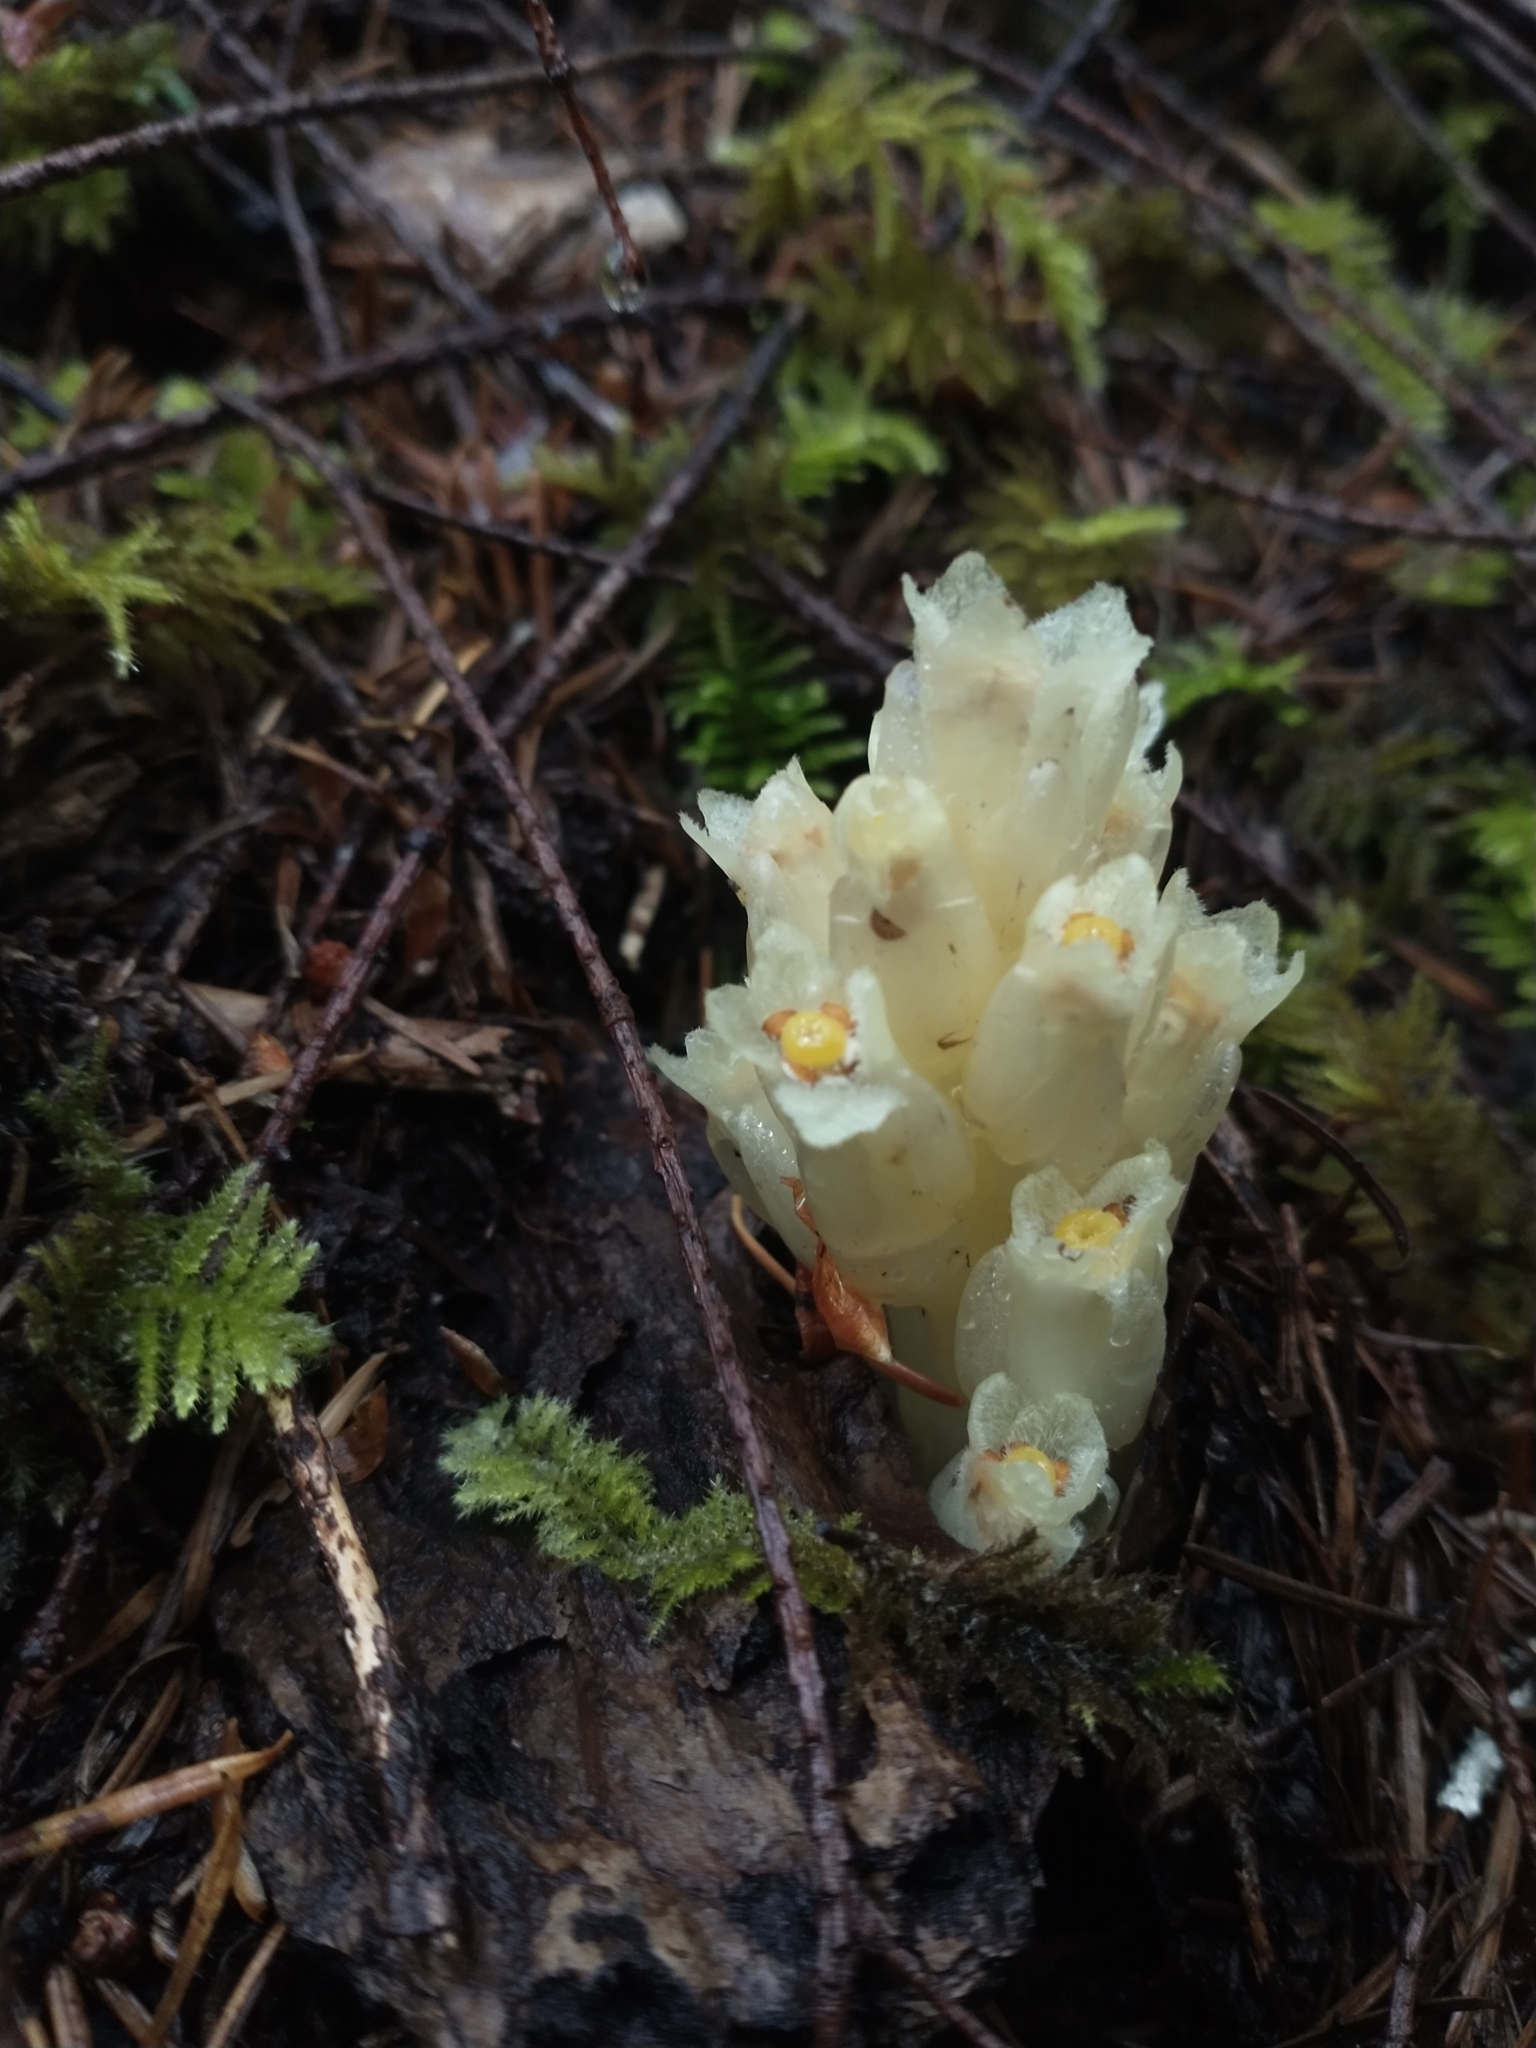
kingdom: Plantae
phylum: Tracheophyta
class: Magnoliopsida
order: Ericales
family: Ericaceae
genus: Pityopus
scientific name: Pityopus californica
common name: California pinefoot
